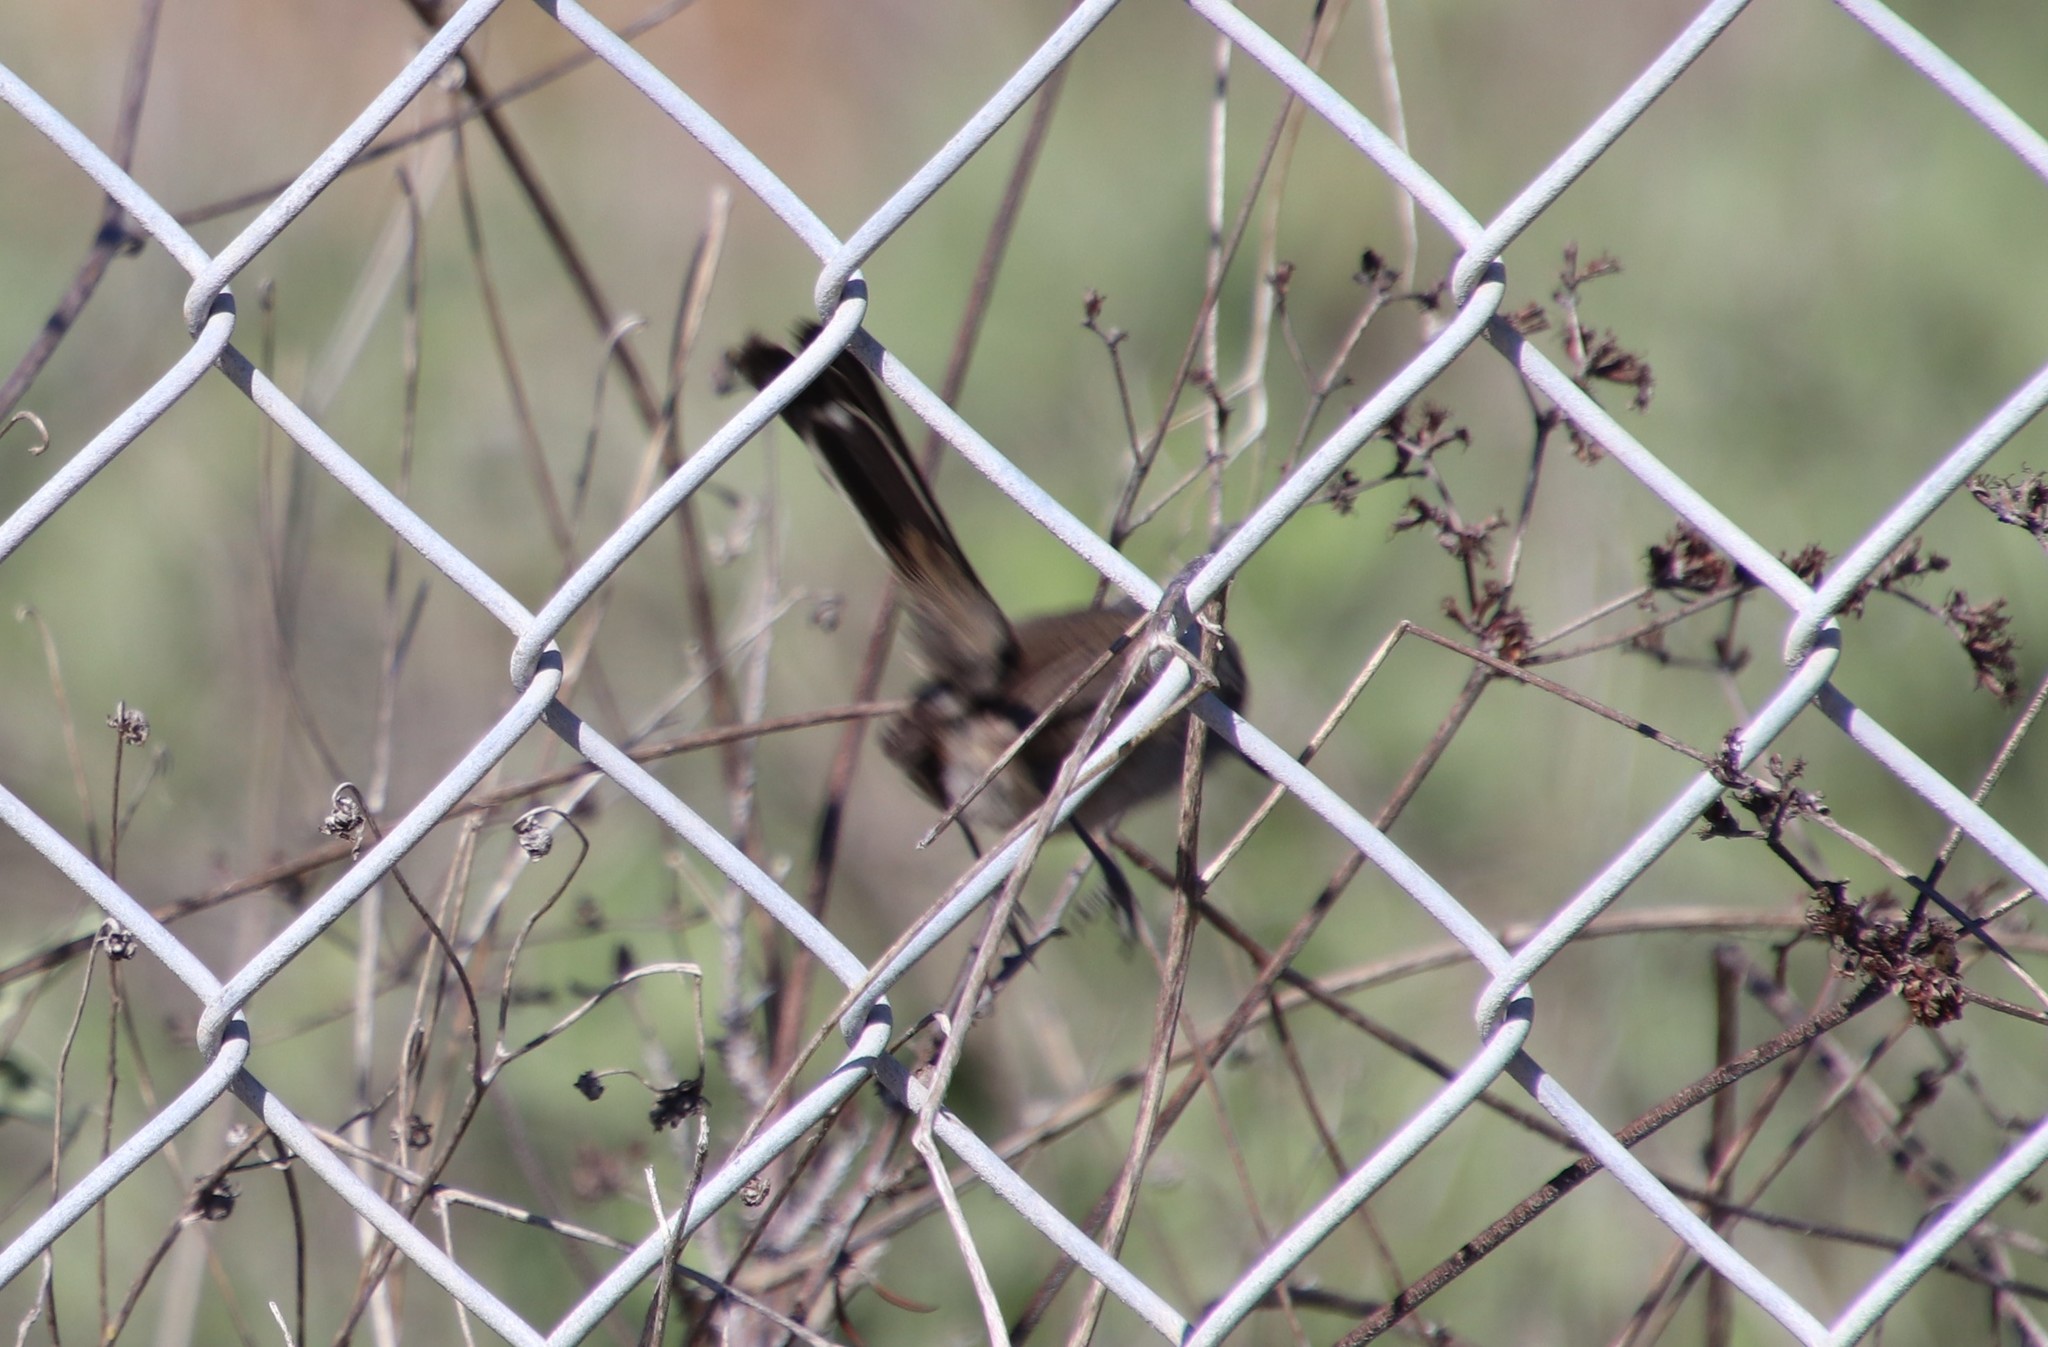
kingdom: Animalia
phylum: Chordata
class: Aves
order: Passeriformes
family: Polioptilidae
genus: Polioptila
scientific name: Polioptila californica
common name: California gnatcatcher
